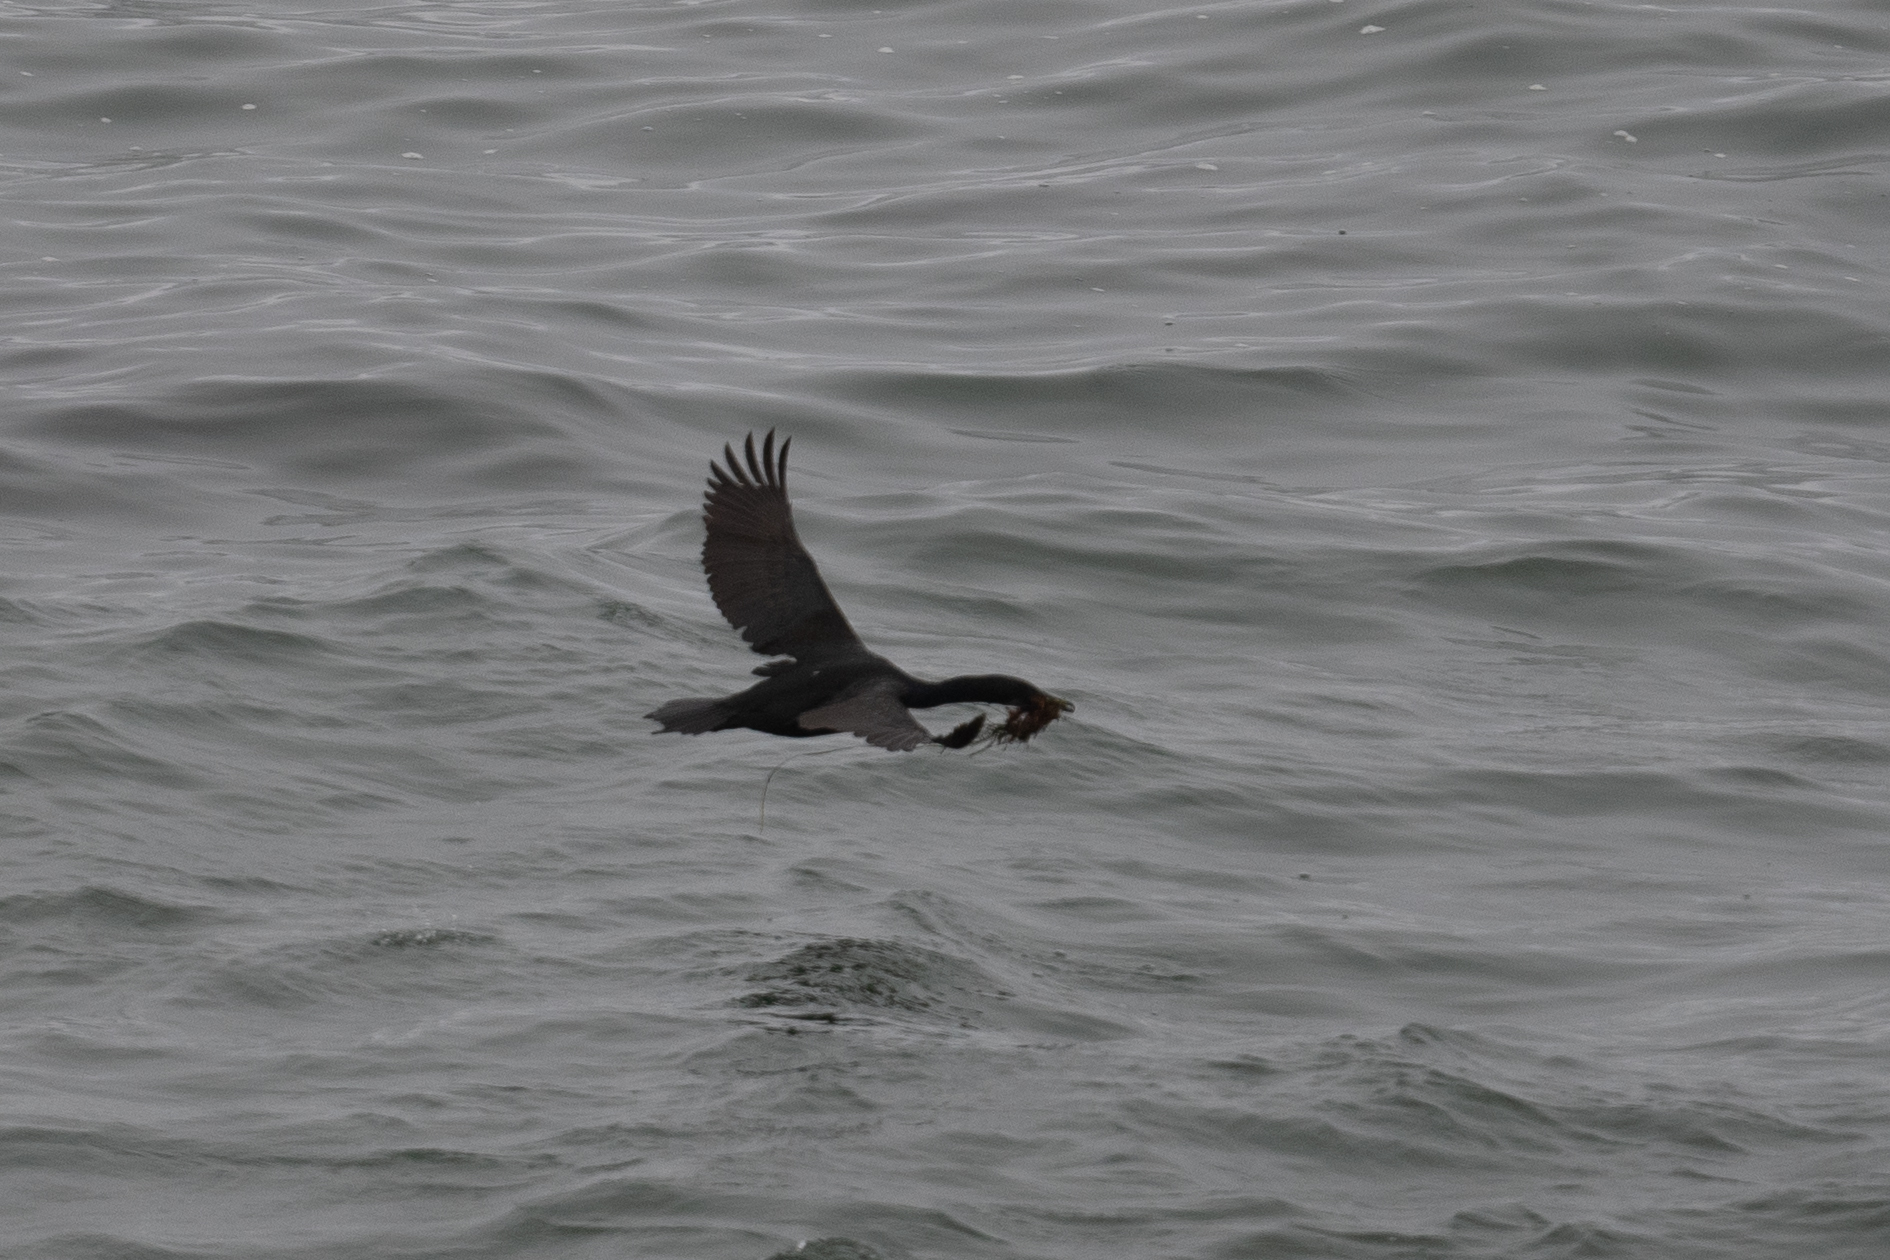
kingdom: Animalia
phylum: Chordata
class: Aves
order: Suliformes
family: Phalacrocoracidae
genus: Urile
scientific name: Urile penicillatus
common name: Brandt's cormorant
